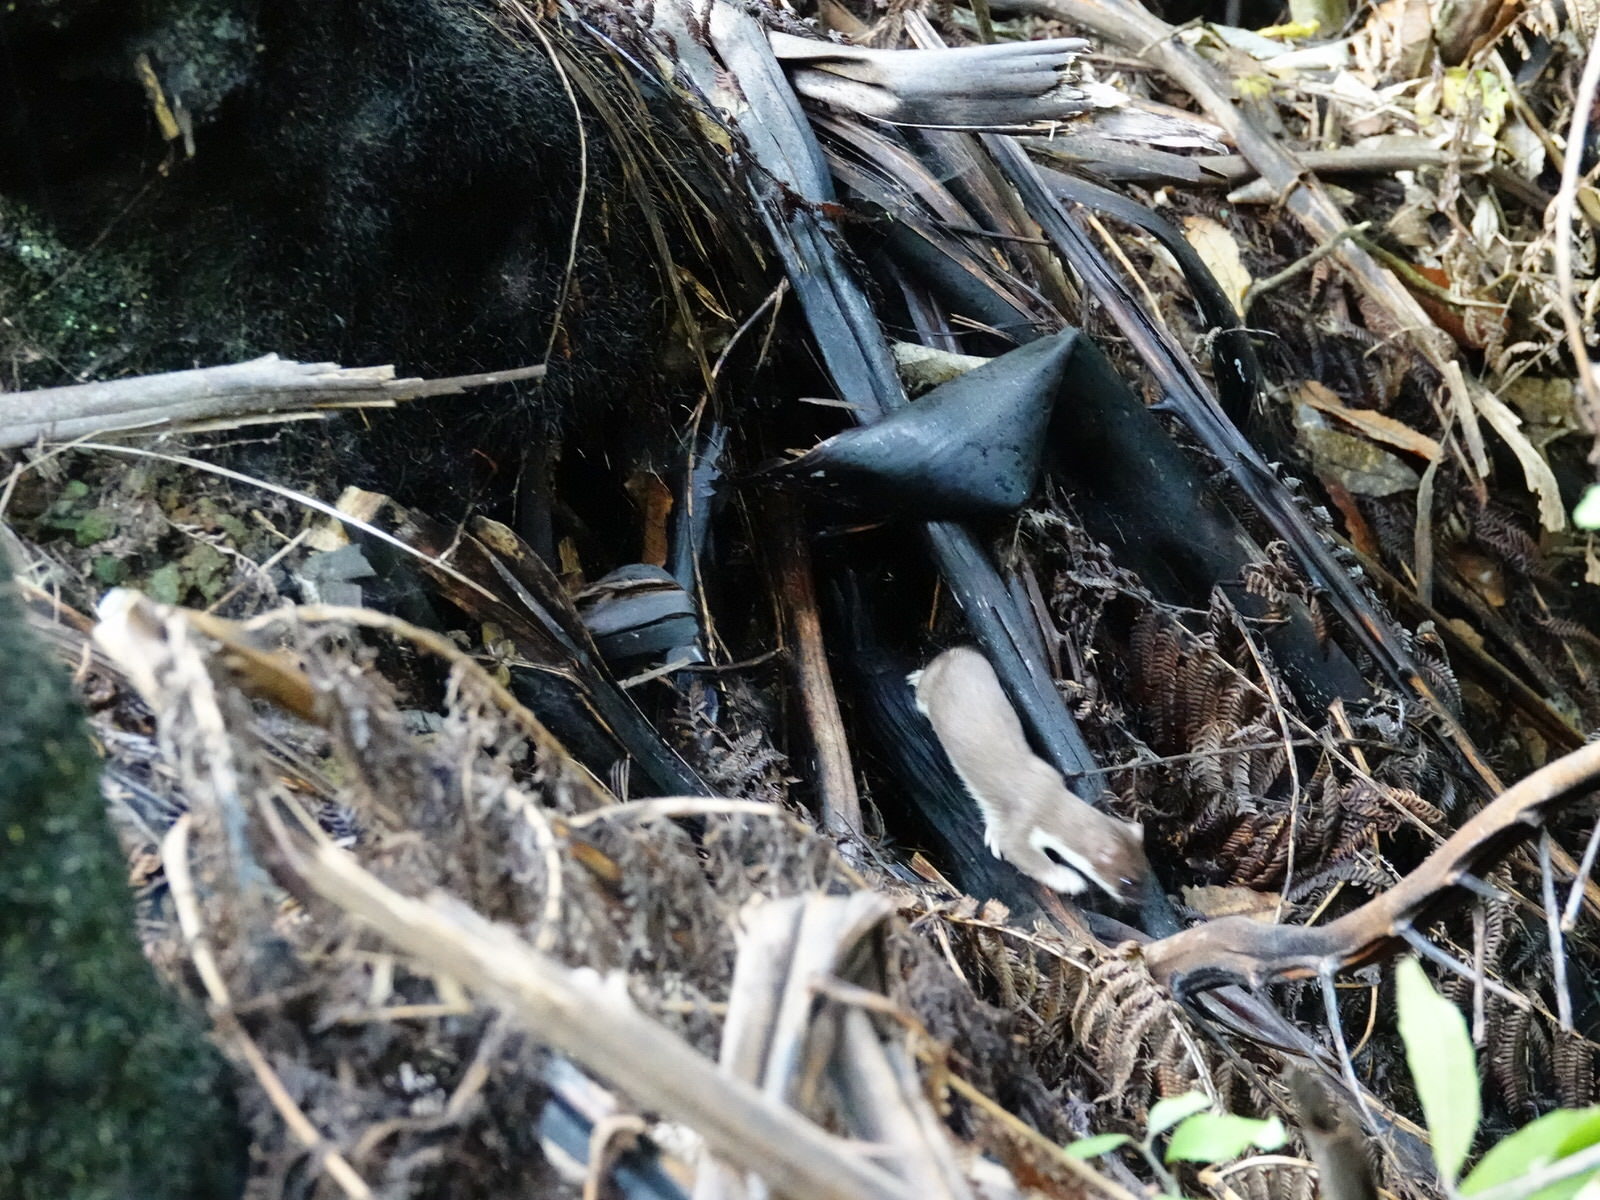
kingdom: Animalia
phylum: Chordata
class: Mammalia
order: Carnivora
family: Mustelidae
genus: Mustela
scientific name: Mustela erminea
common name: Stoat
